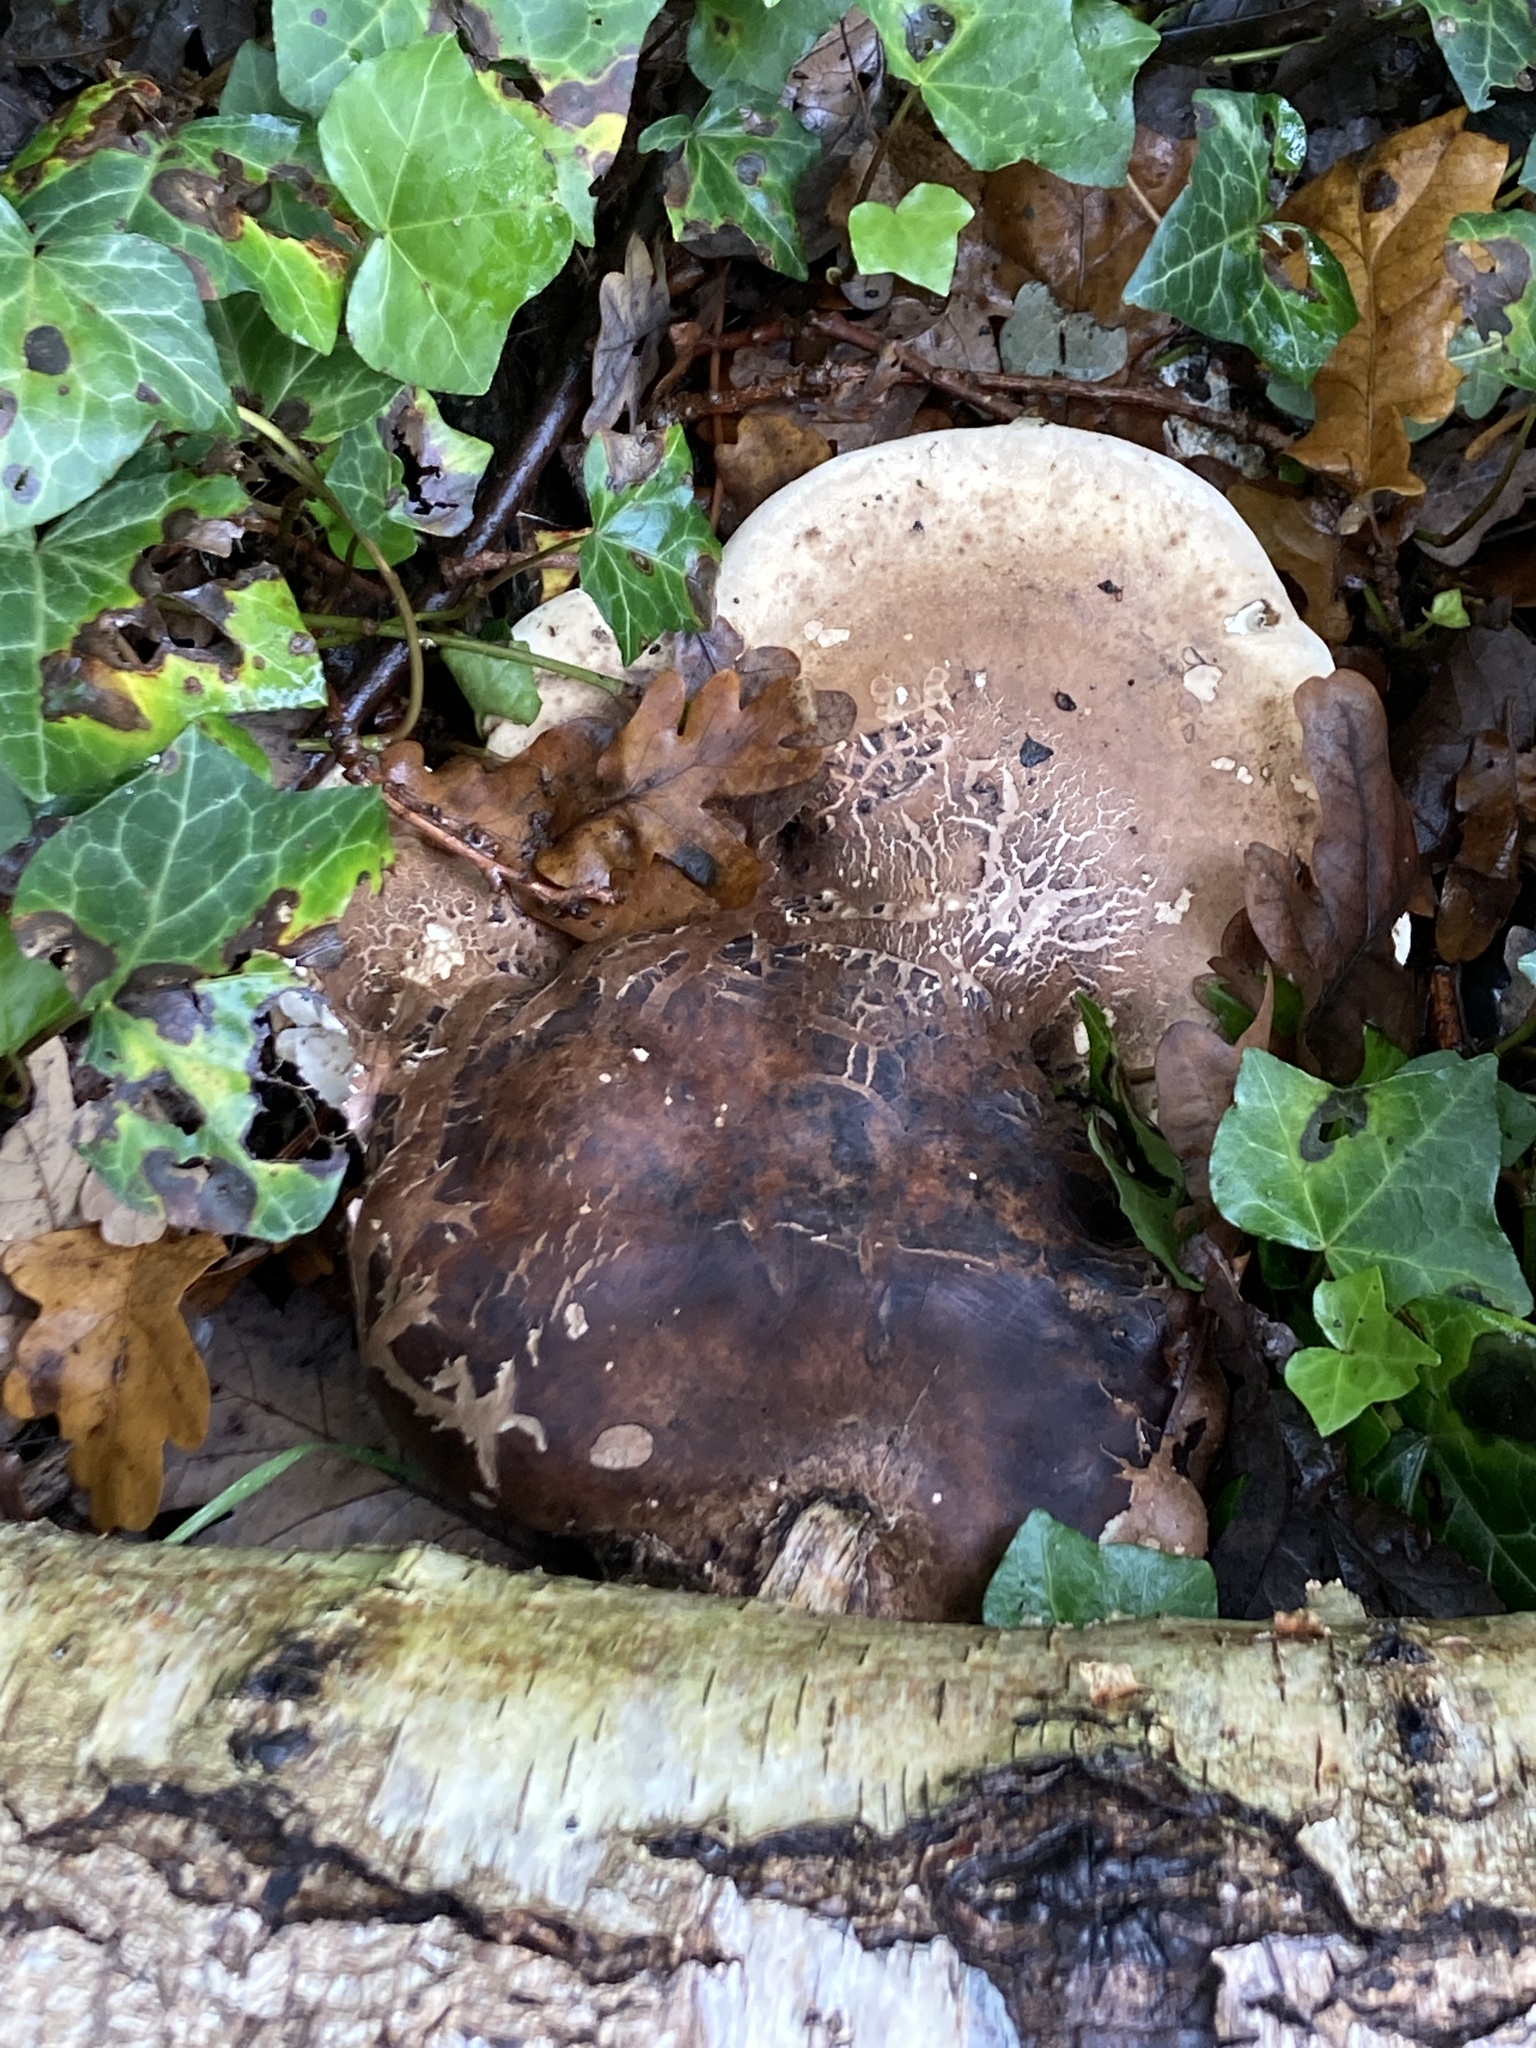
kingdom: Fungi
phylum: Basidiomycota
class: Agaricomycetes
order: Polyporales
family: Fomitopsidaceae
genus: Fomitopsis
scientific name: Fomitopsis betulina
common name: Birch polypore
